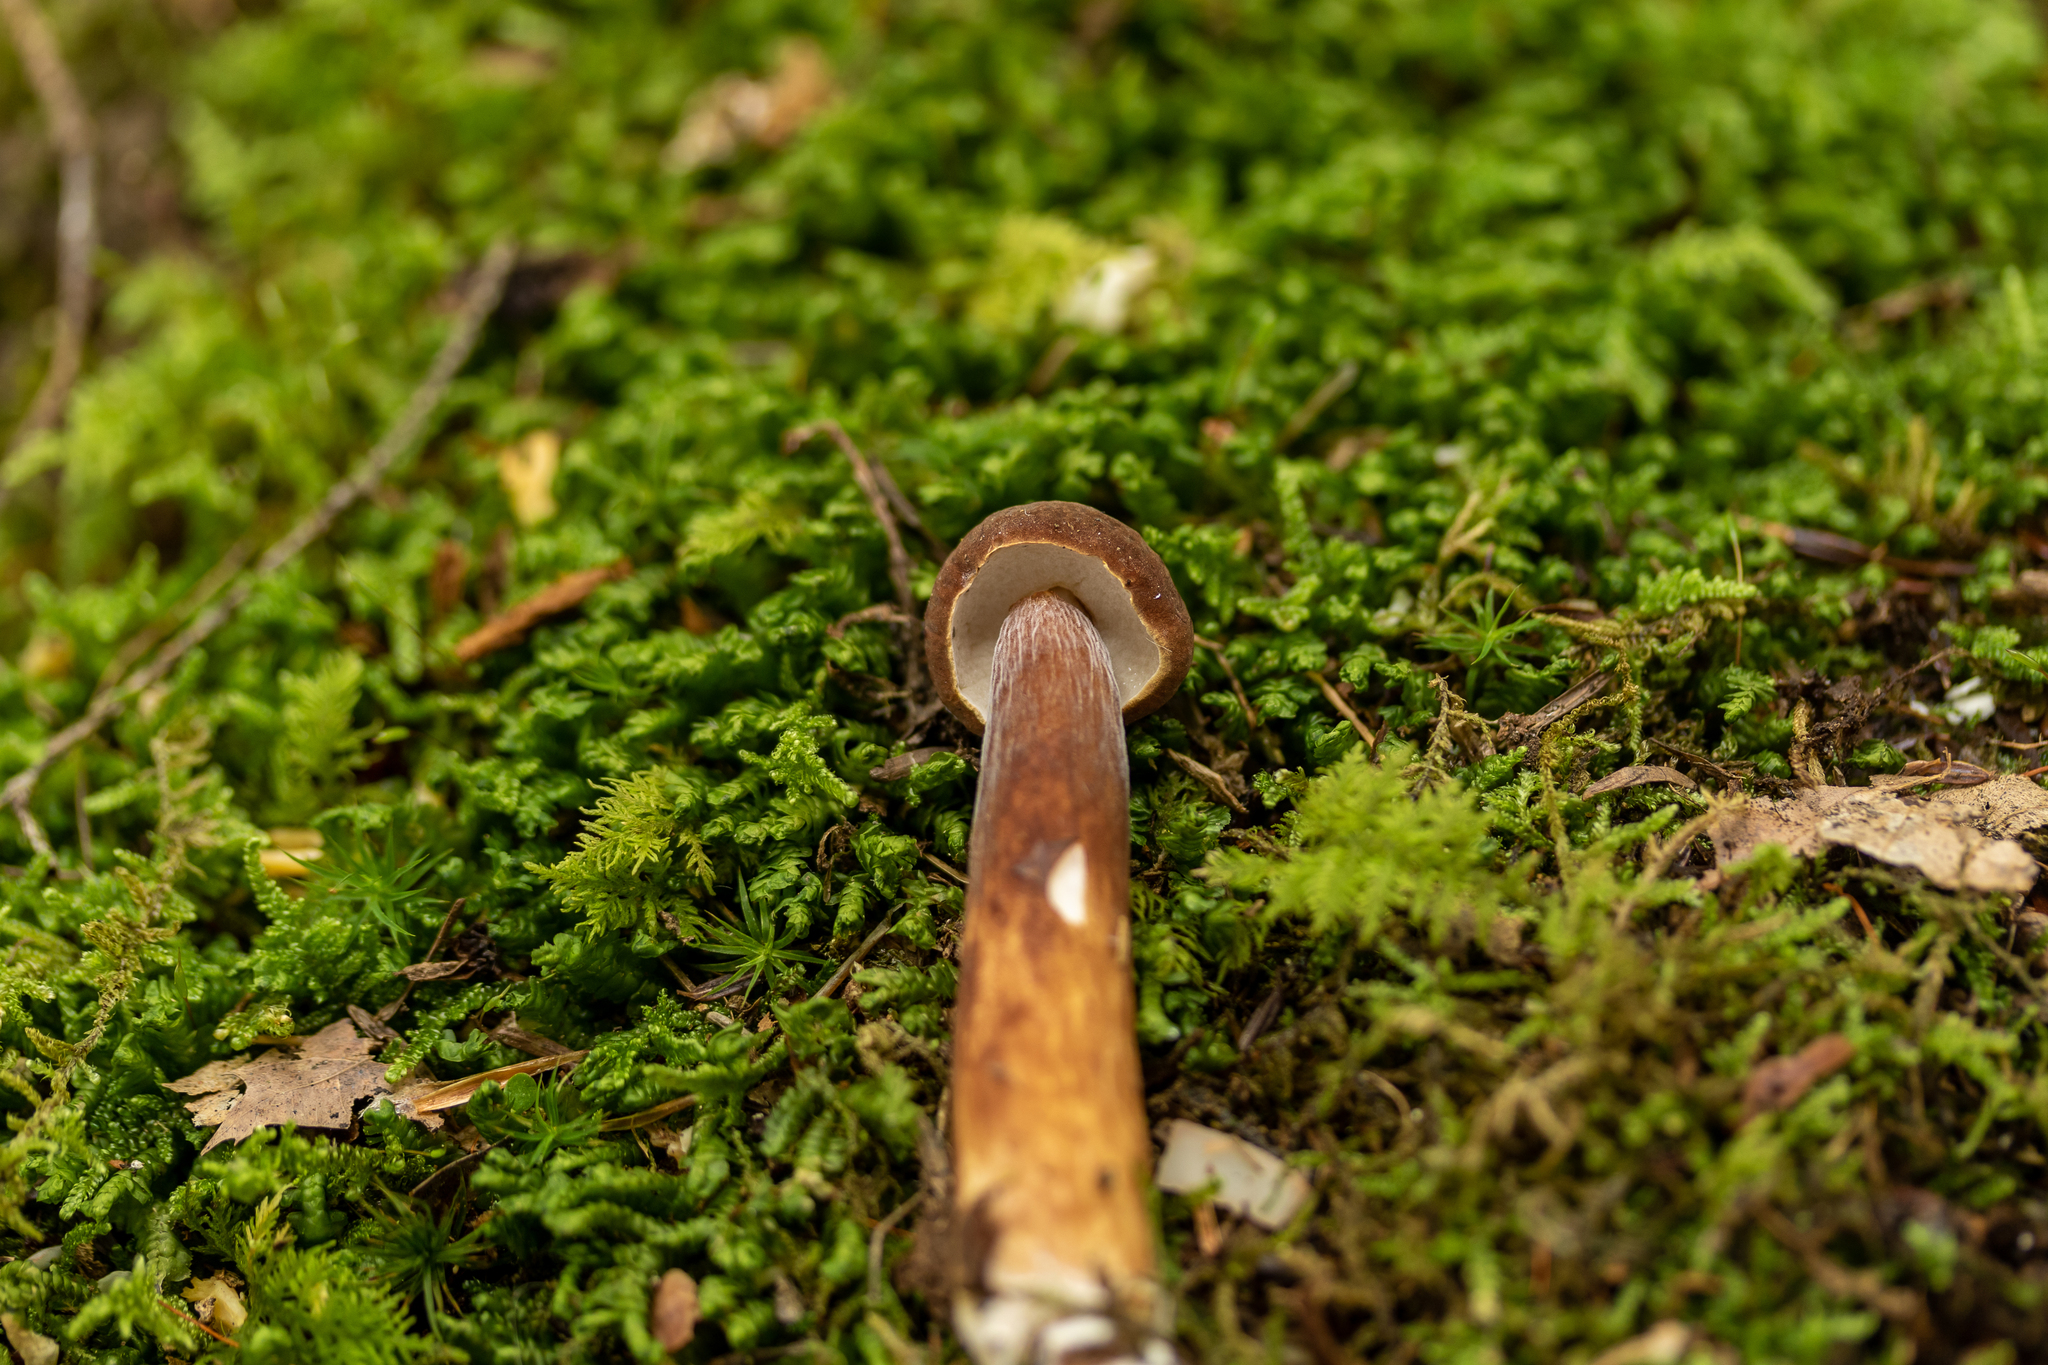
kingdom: Fungi
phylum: Basidiomycota
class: Agaricomycetes
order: Boletales
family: Boletaceae
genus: Austroboletus
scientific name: Austroboletus gracilis
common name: Graceful bolete
